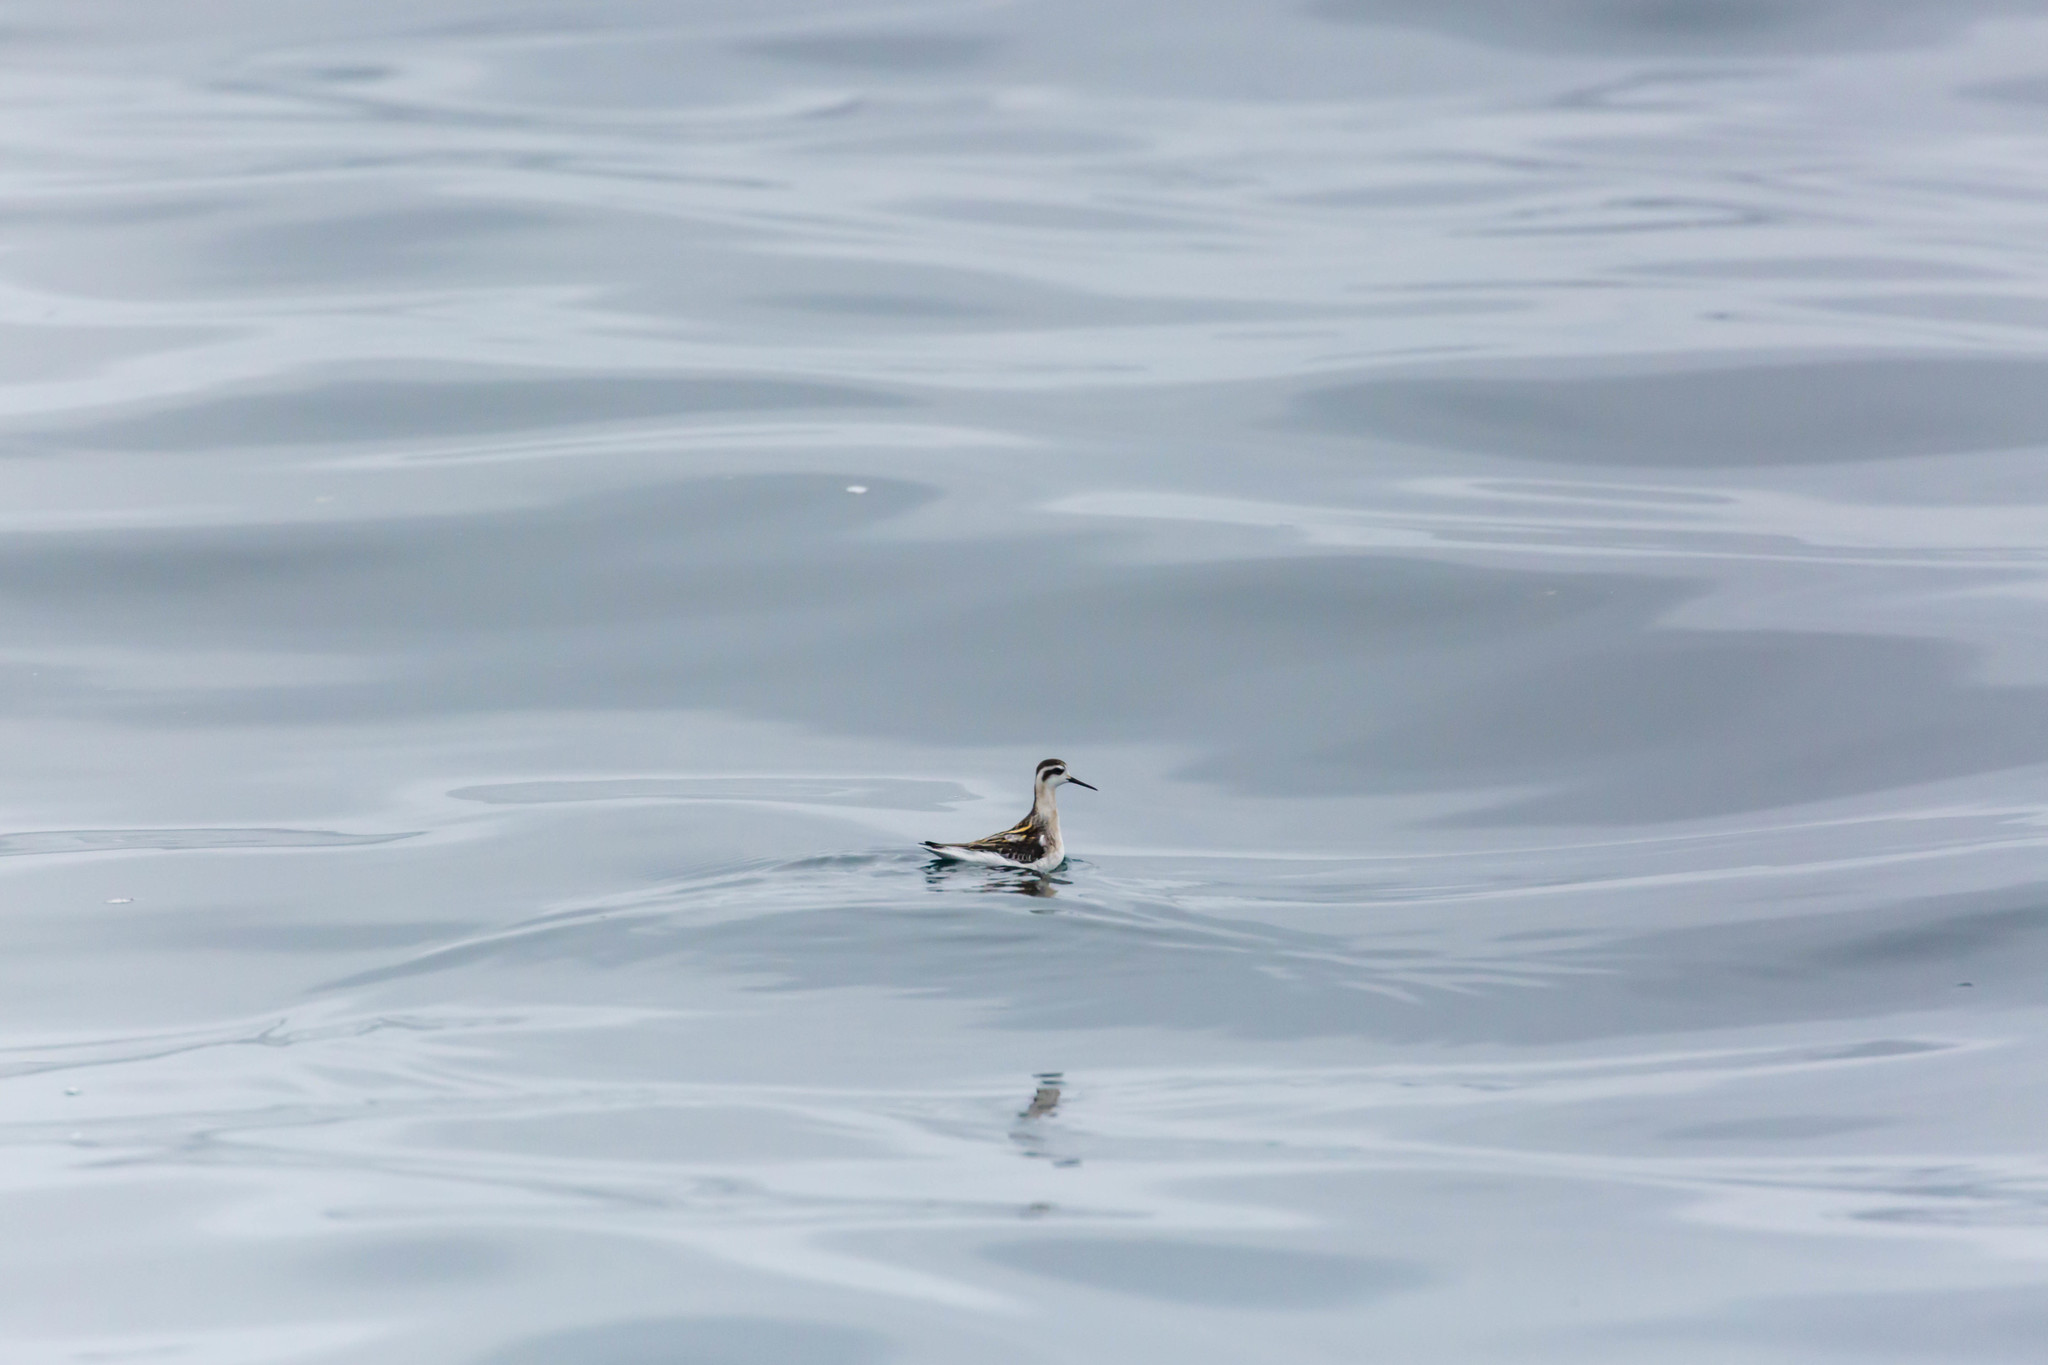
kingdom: Animalia
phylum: Chordata
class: Aves
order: Charadriiformes
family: Scolopacidae
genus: Phalaropus
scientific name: Phalaropus lobatus
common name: Red-necked phalarope
